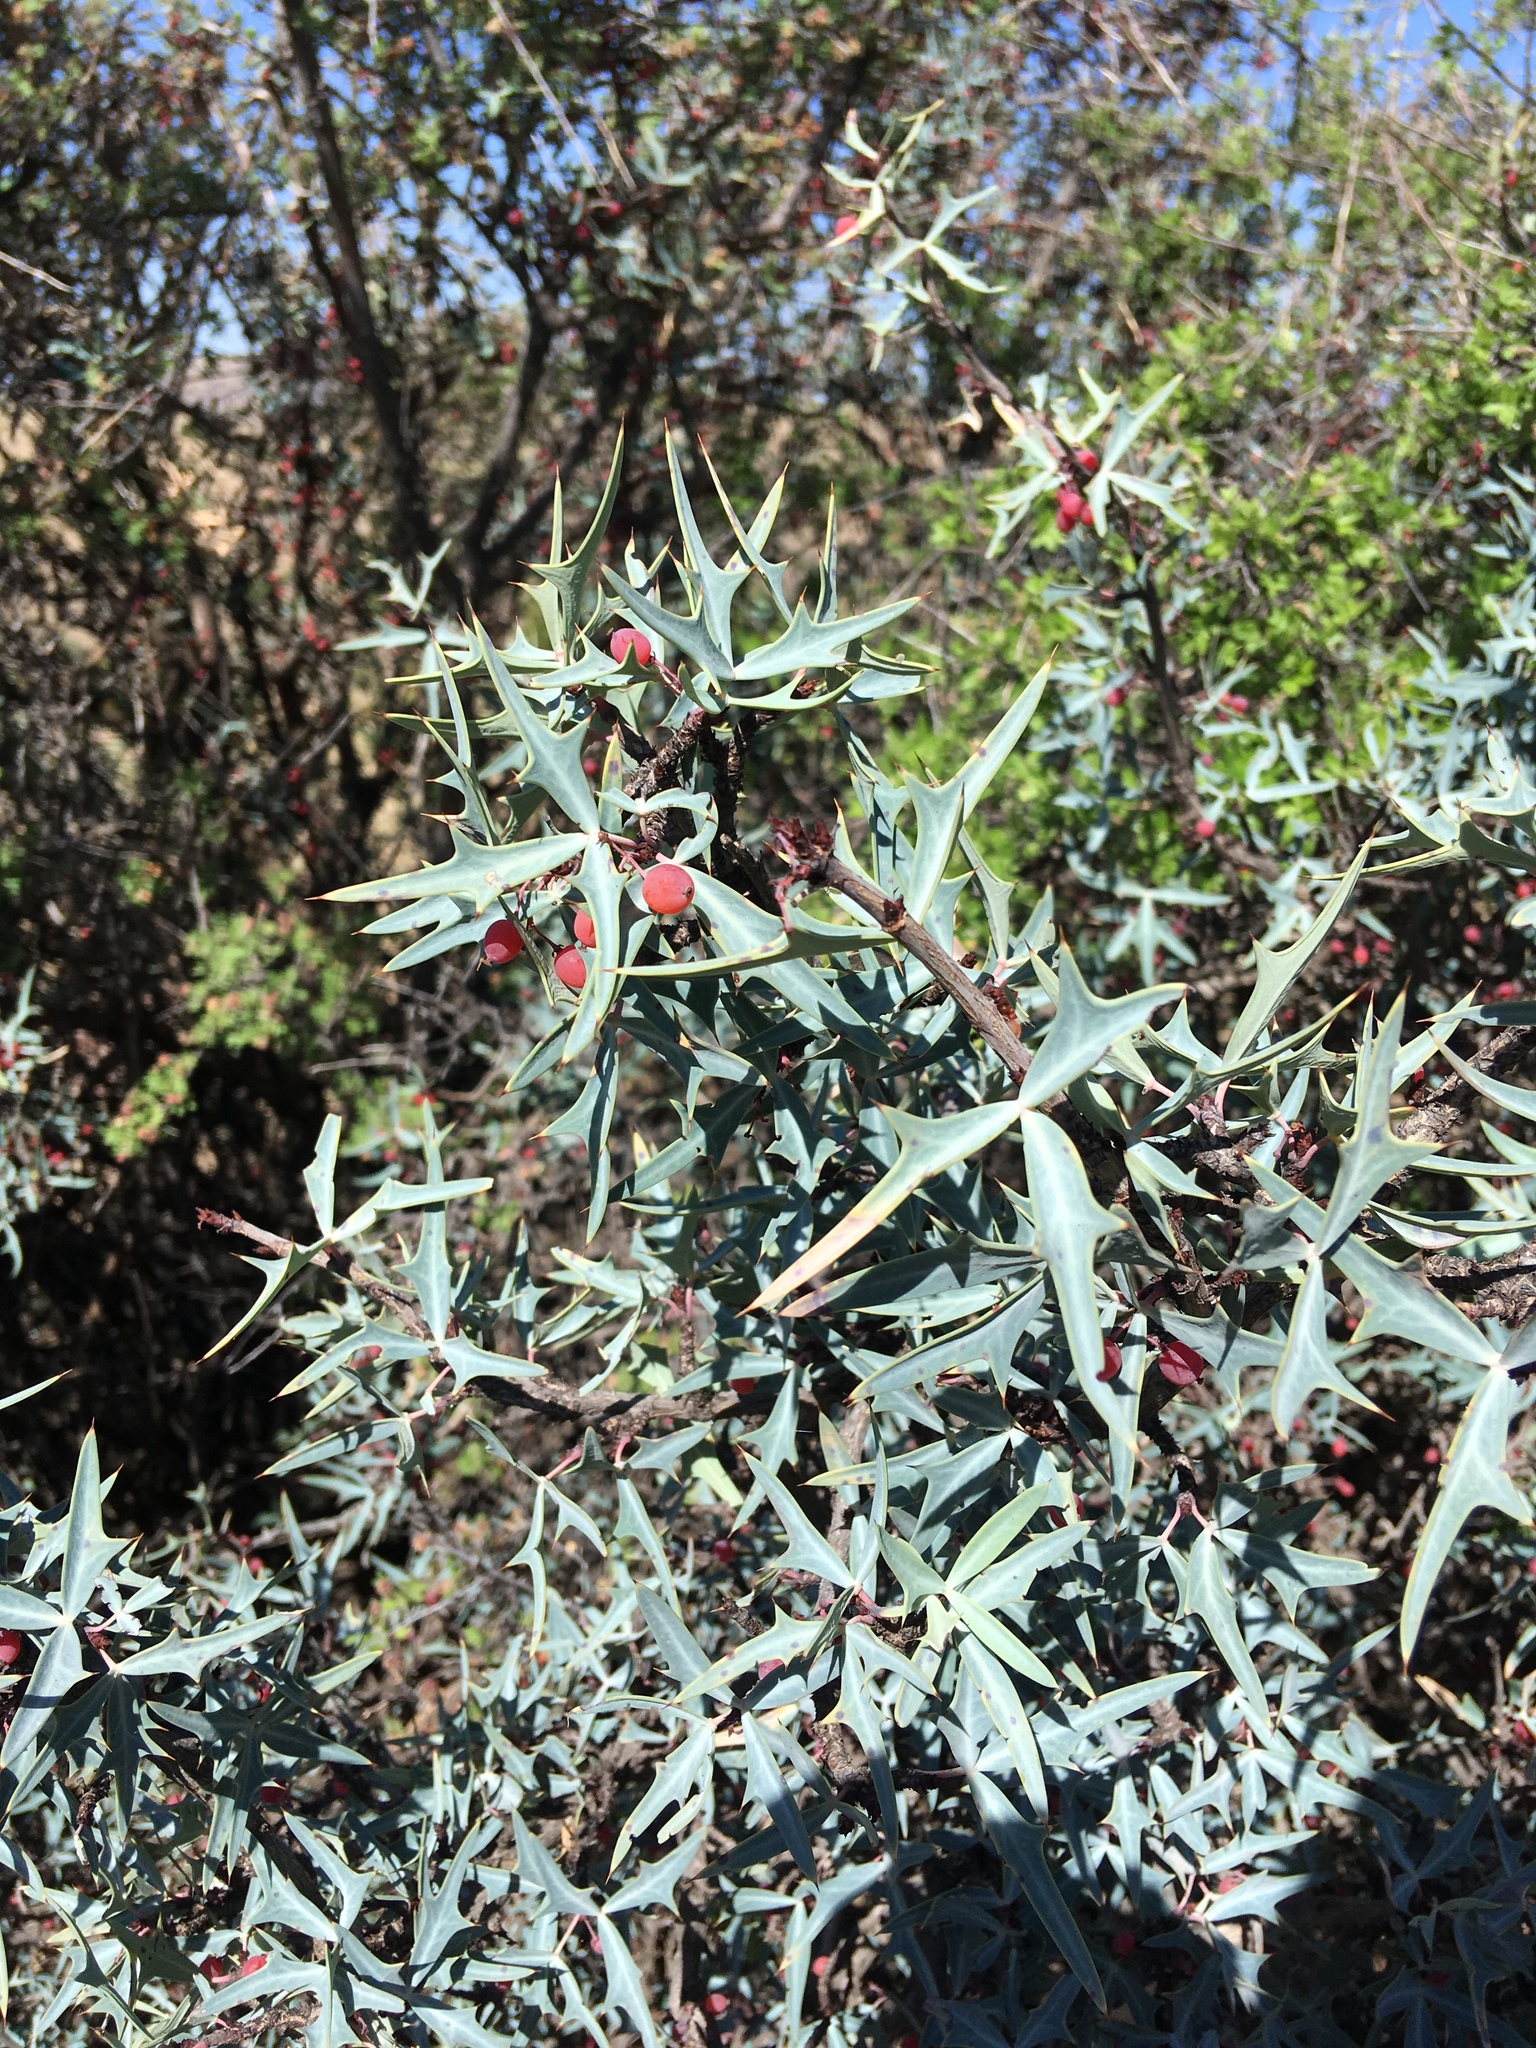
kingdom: Plantae
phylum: Tracheophyta
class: Magnoliopsida
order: Ranunculales
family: Berberidaceae
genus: Alloberberis
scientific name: Alloberberis trifoliolata
